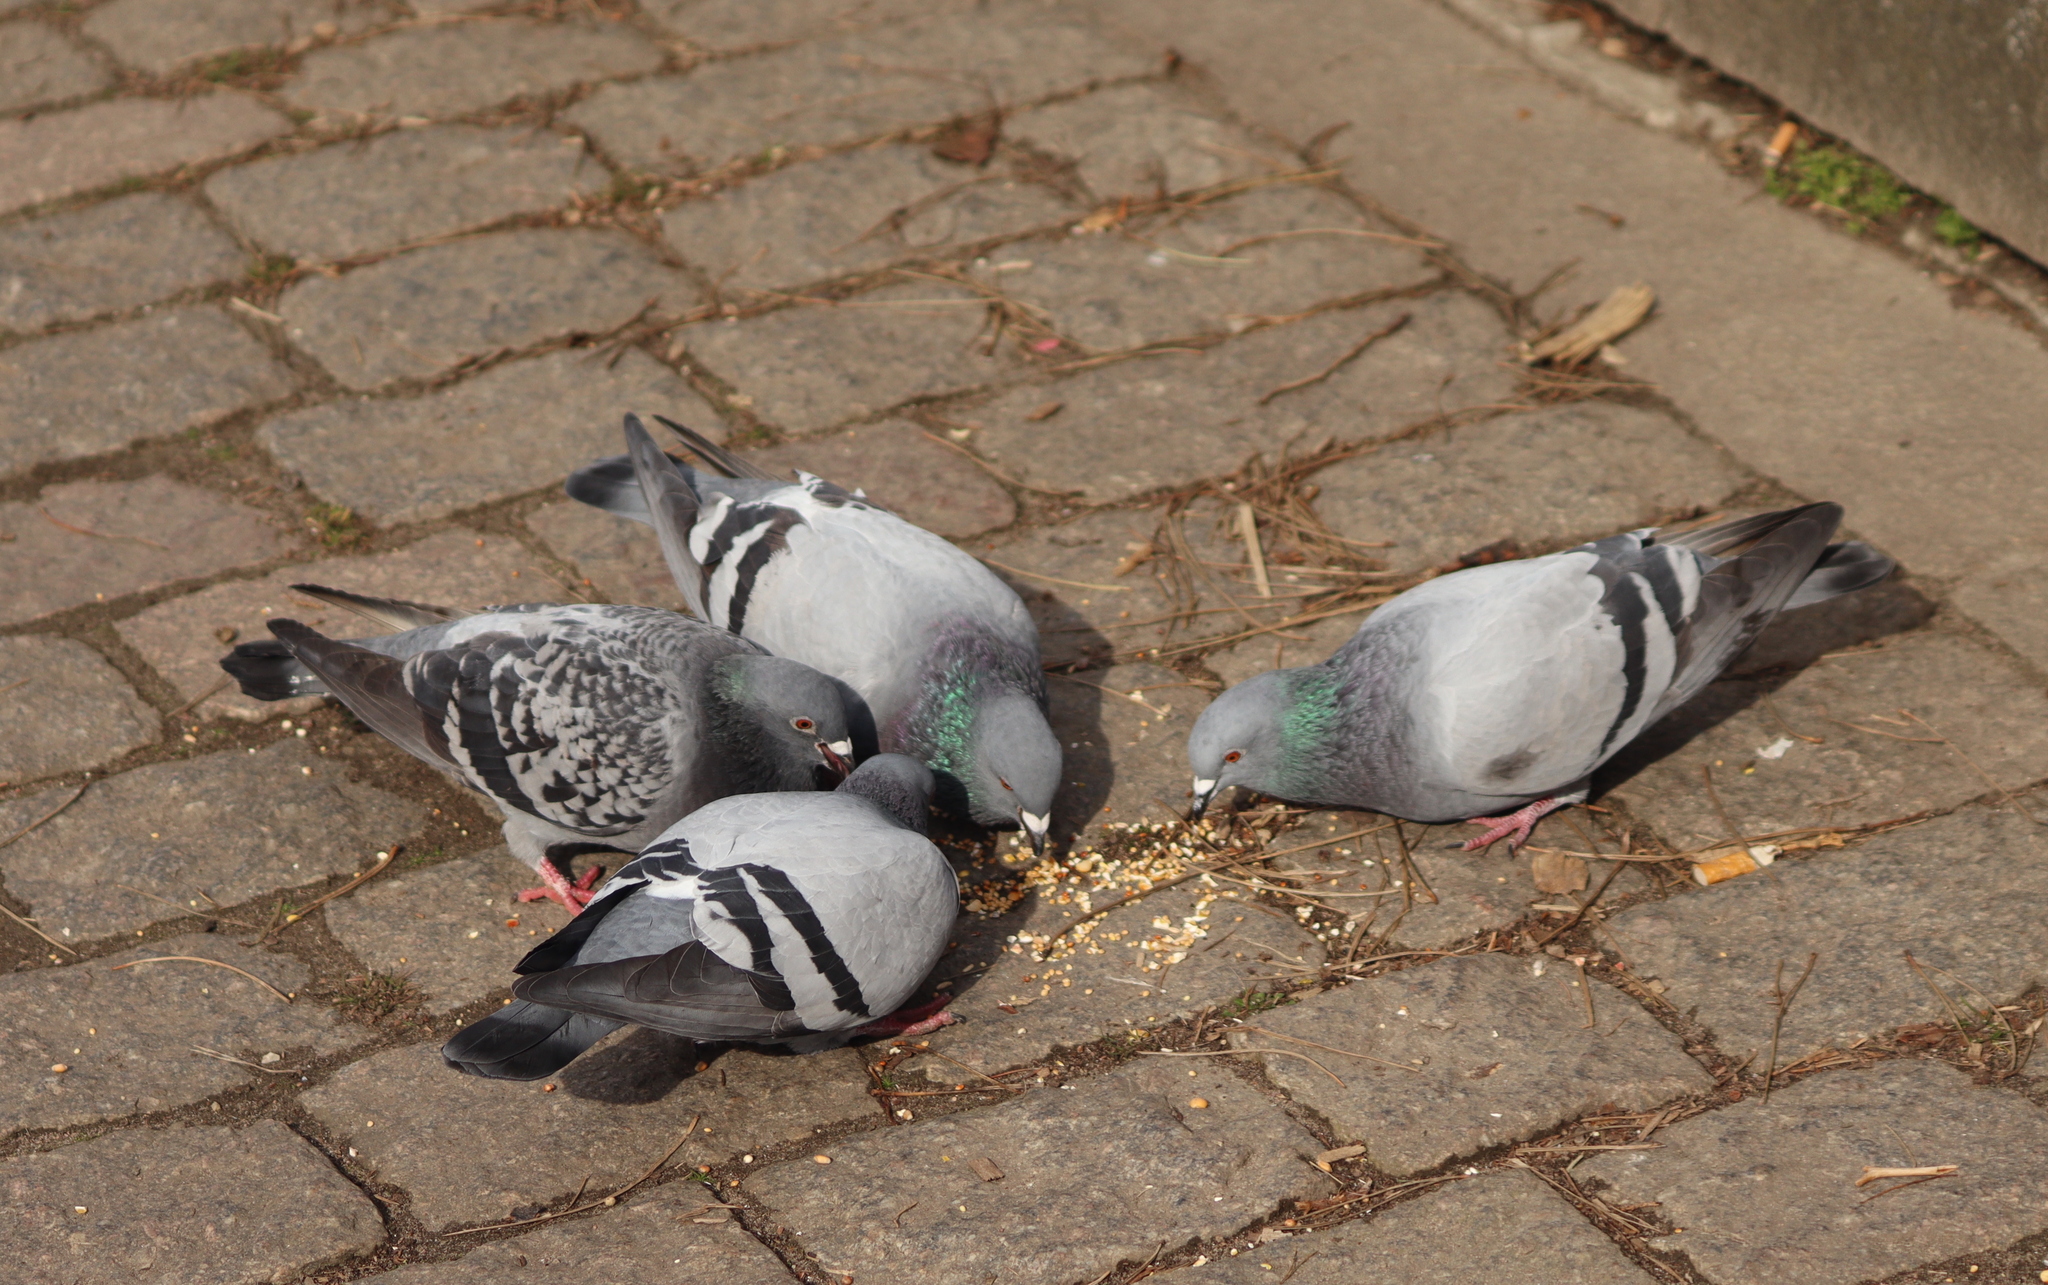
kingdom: Animalia
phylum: Chordata
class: Aves
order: Columbiformes
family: Columbidae
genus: Columba
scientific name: Columba livia
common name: Rock pigeon
